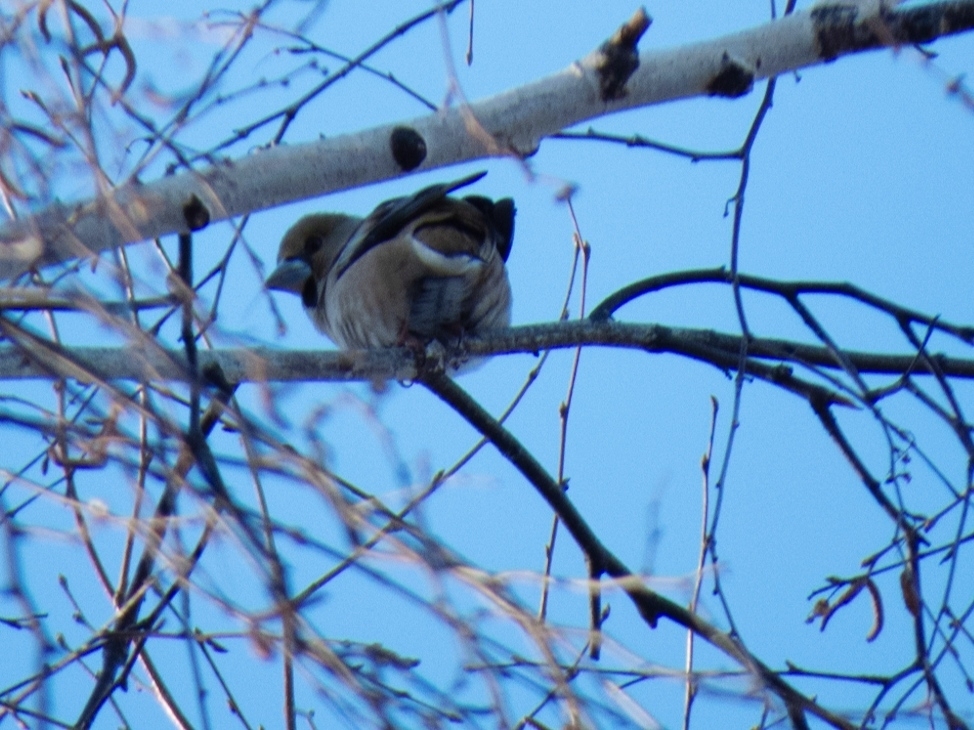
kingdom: Animalia
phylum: Chordata
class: Aves
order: Passeriformes
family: Fringillidae
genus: Coccothraustes
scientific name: Coccothraustes coccothraustes
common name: Hawfinch
